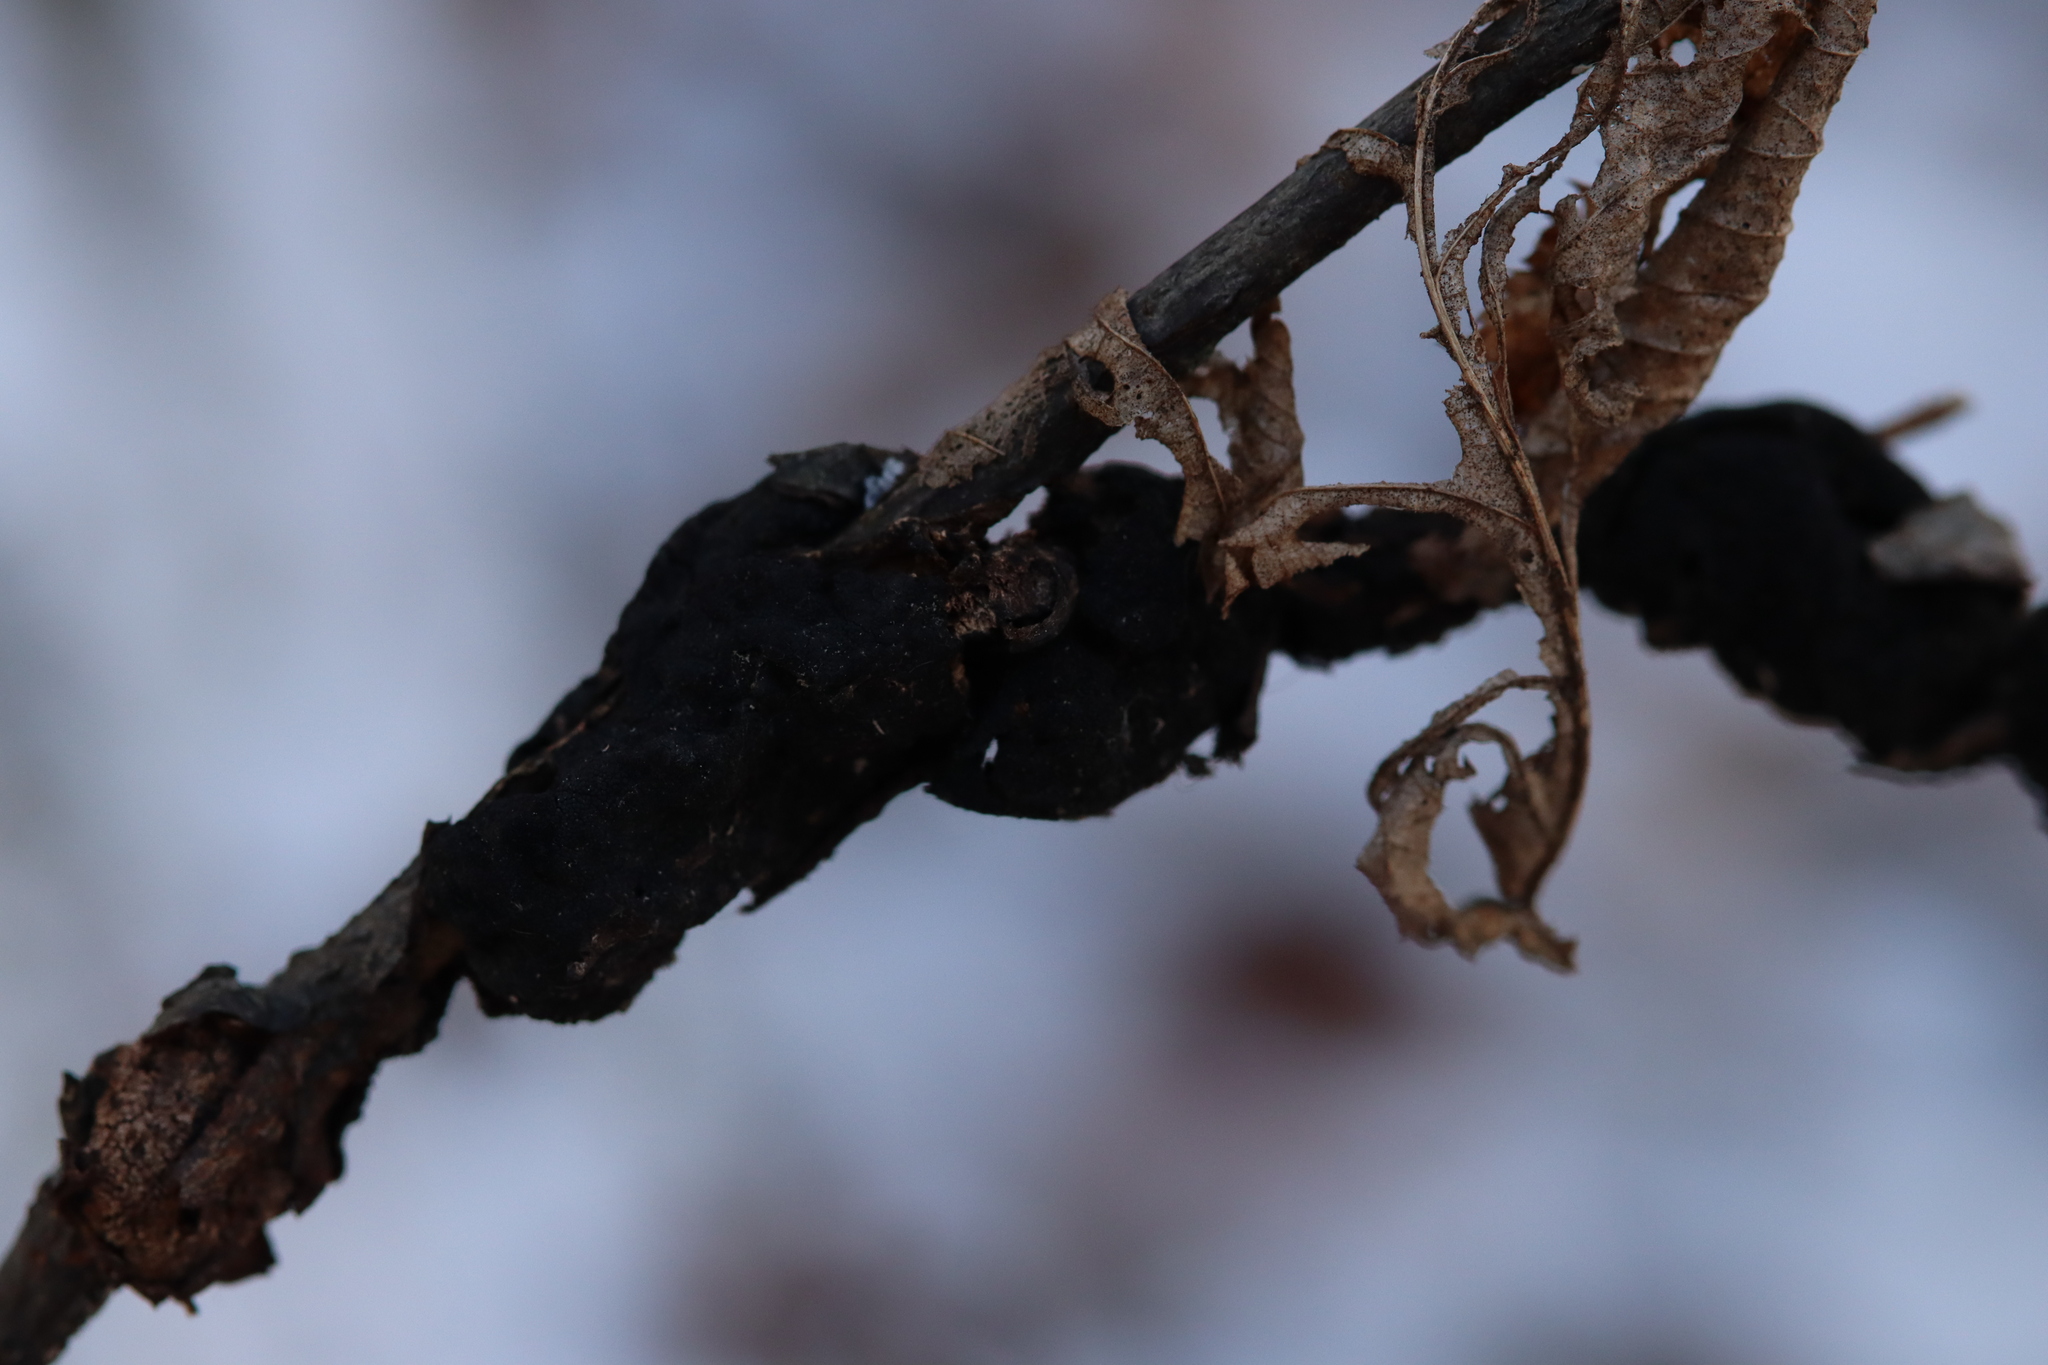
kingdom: Fungi
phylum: Ascomycota
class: Dothideomycetes
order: Venturiales
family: Venturiaceae
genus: Apiosporina
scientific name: Apiosporina morbosa
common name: Black knot
